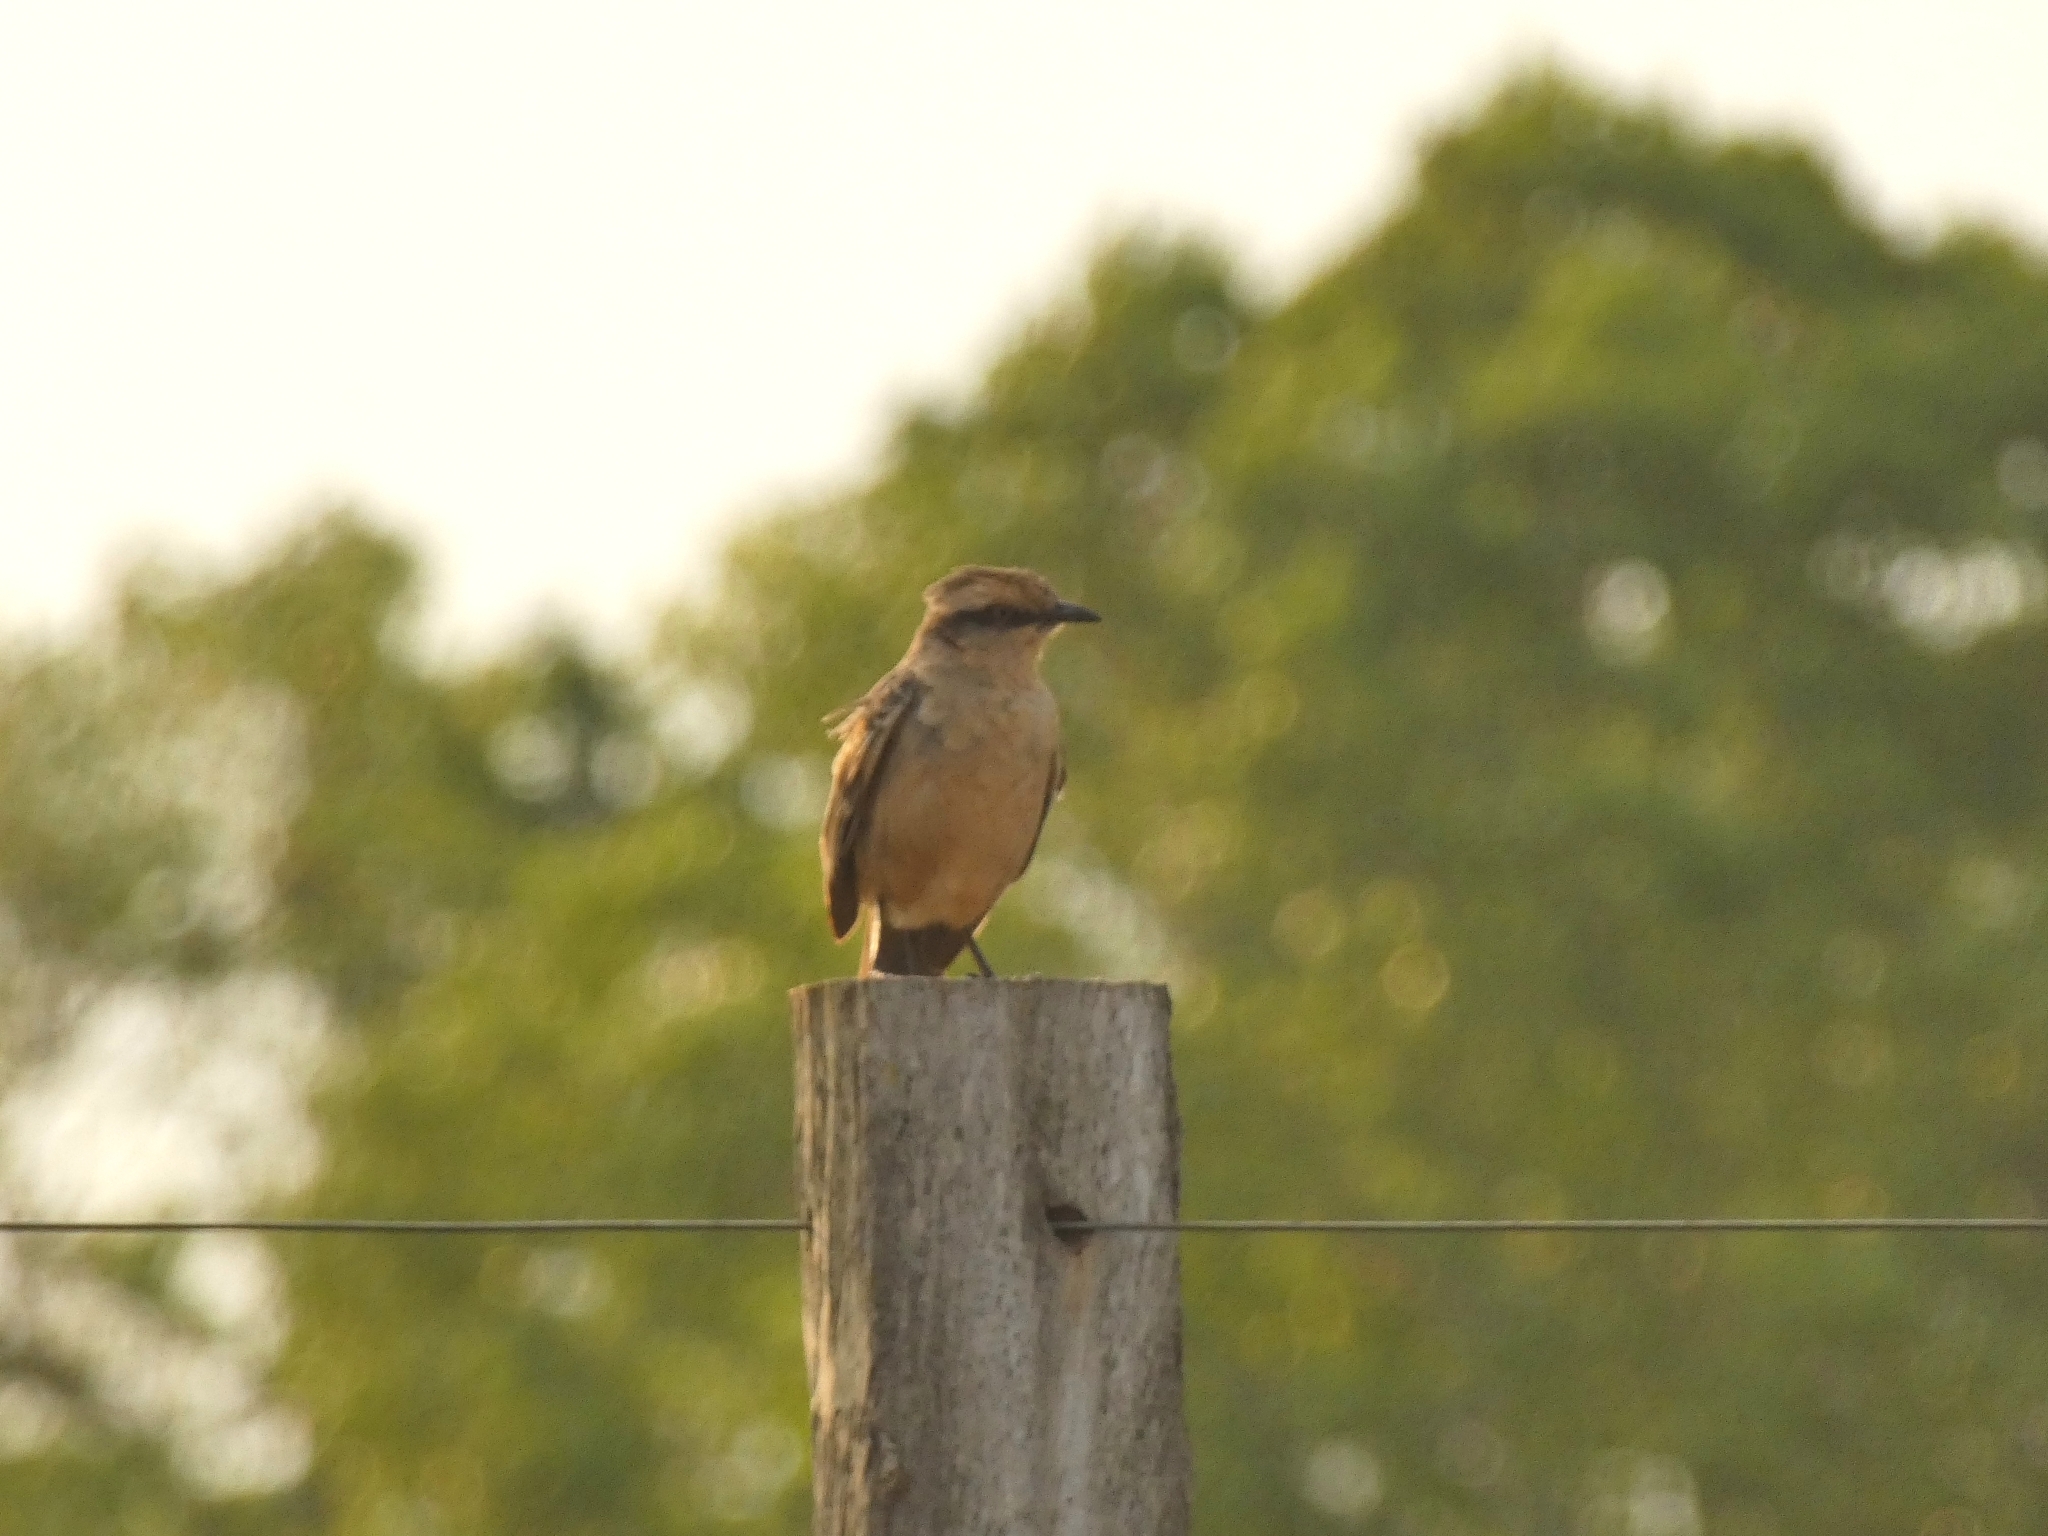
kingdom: Animalia
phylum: Chordata
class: Aves
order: Passeriformes
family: Mimidae
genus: Mimus
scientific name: Mimus saturninus
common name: Chalk-browed mockingbird
